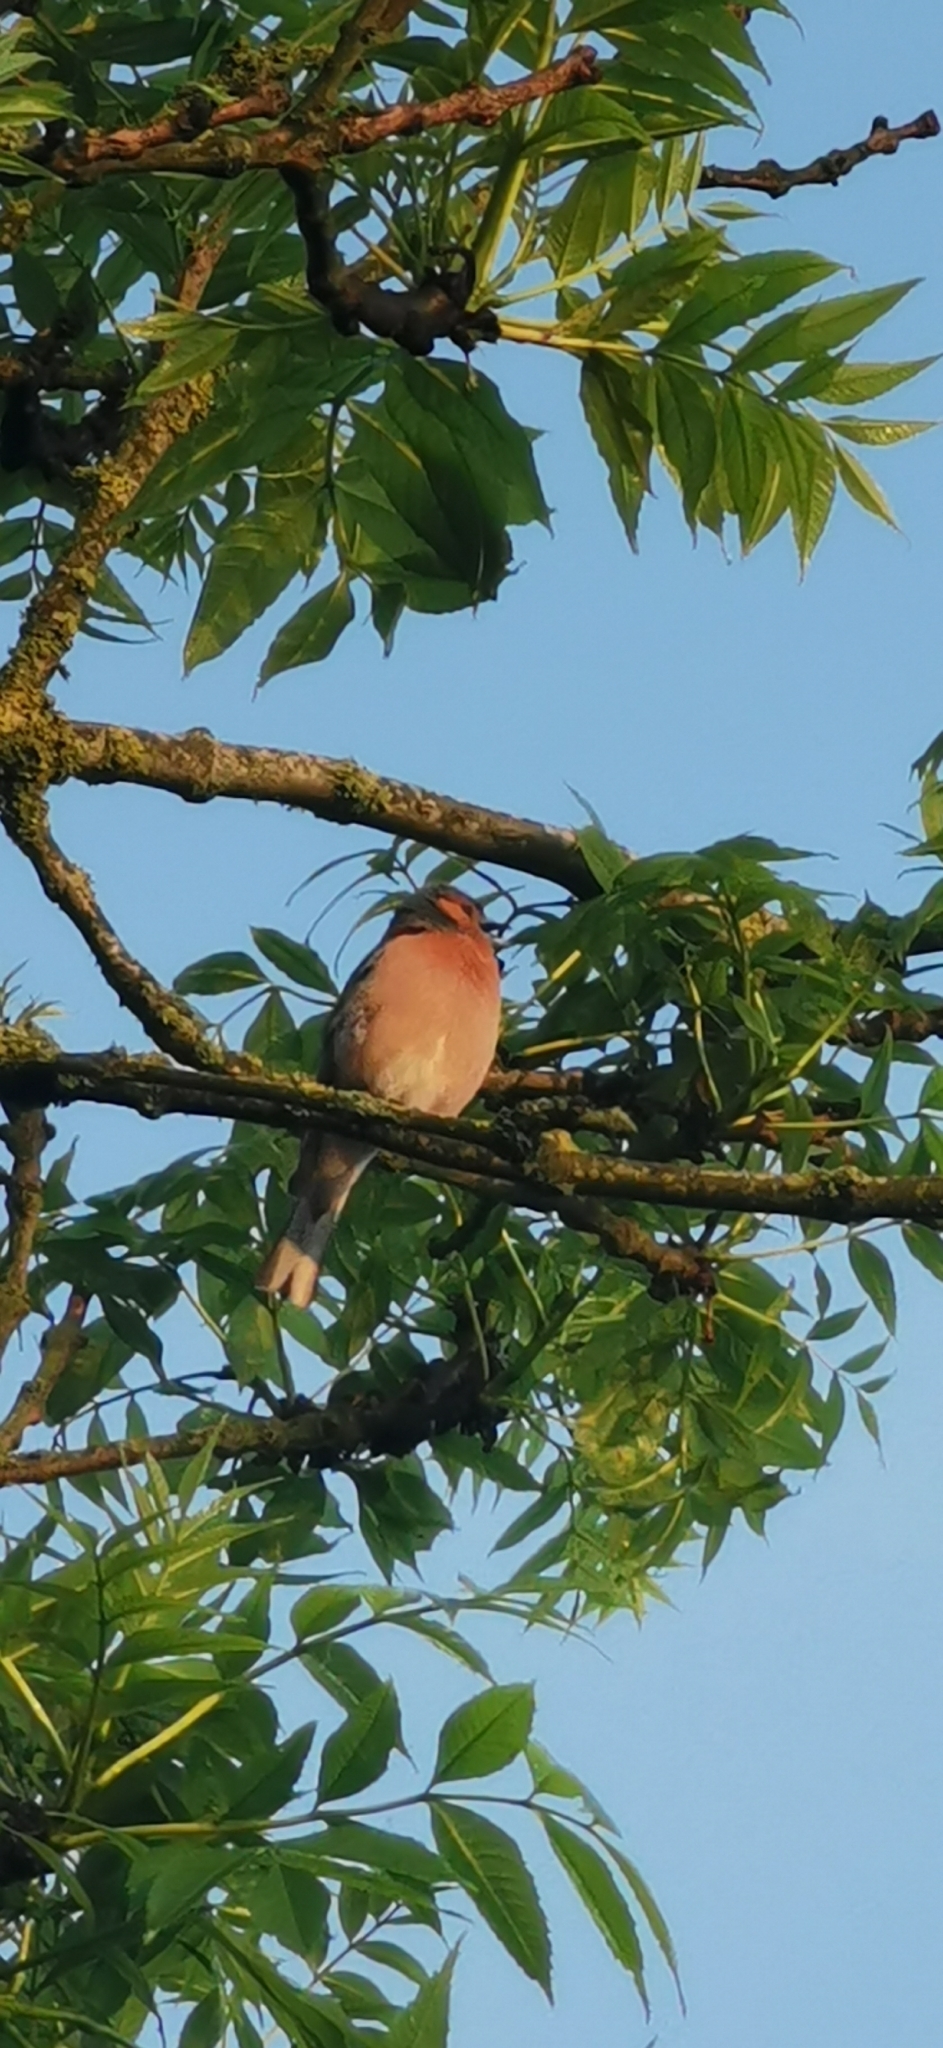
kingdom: Animalia
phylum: Chordata
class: Aves
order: Passeriformes
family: Fringillidae
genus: Fringilla
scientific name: Fringilla coelebs
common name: Common chaffinch
